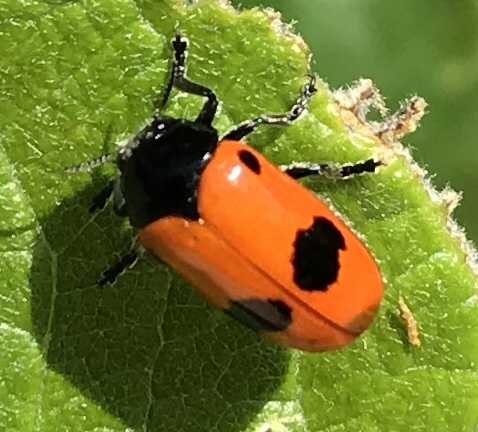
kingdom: Animalia
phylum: Arthropoda
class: Insecta
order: Coleoptera
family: Chrysomelidae
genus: Clytra
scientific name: Clytra laeviuscula
